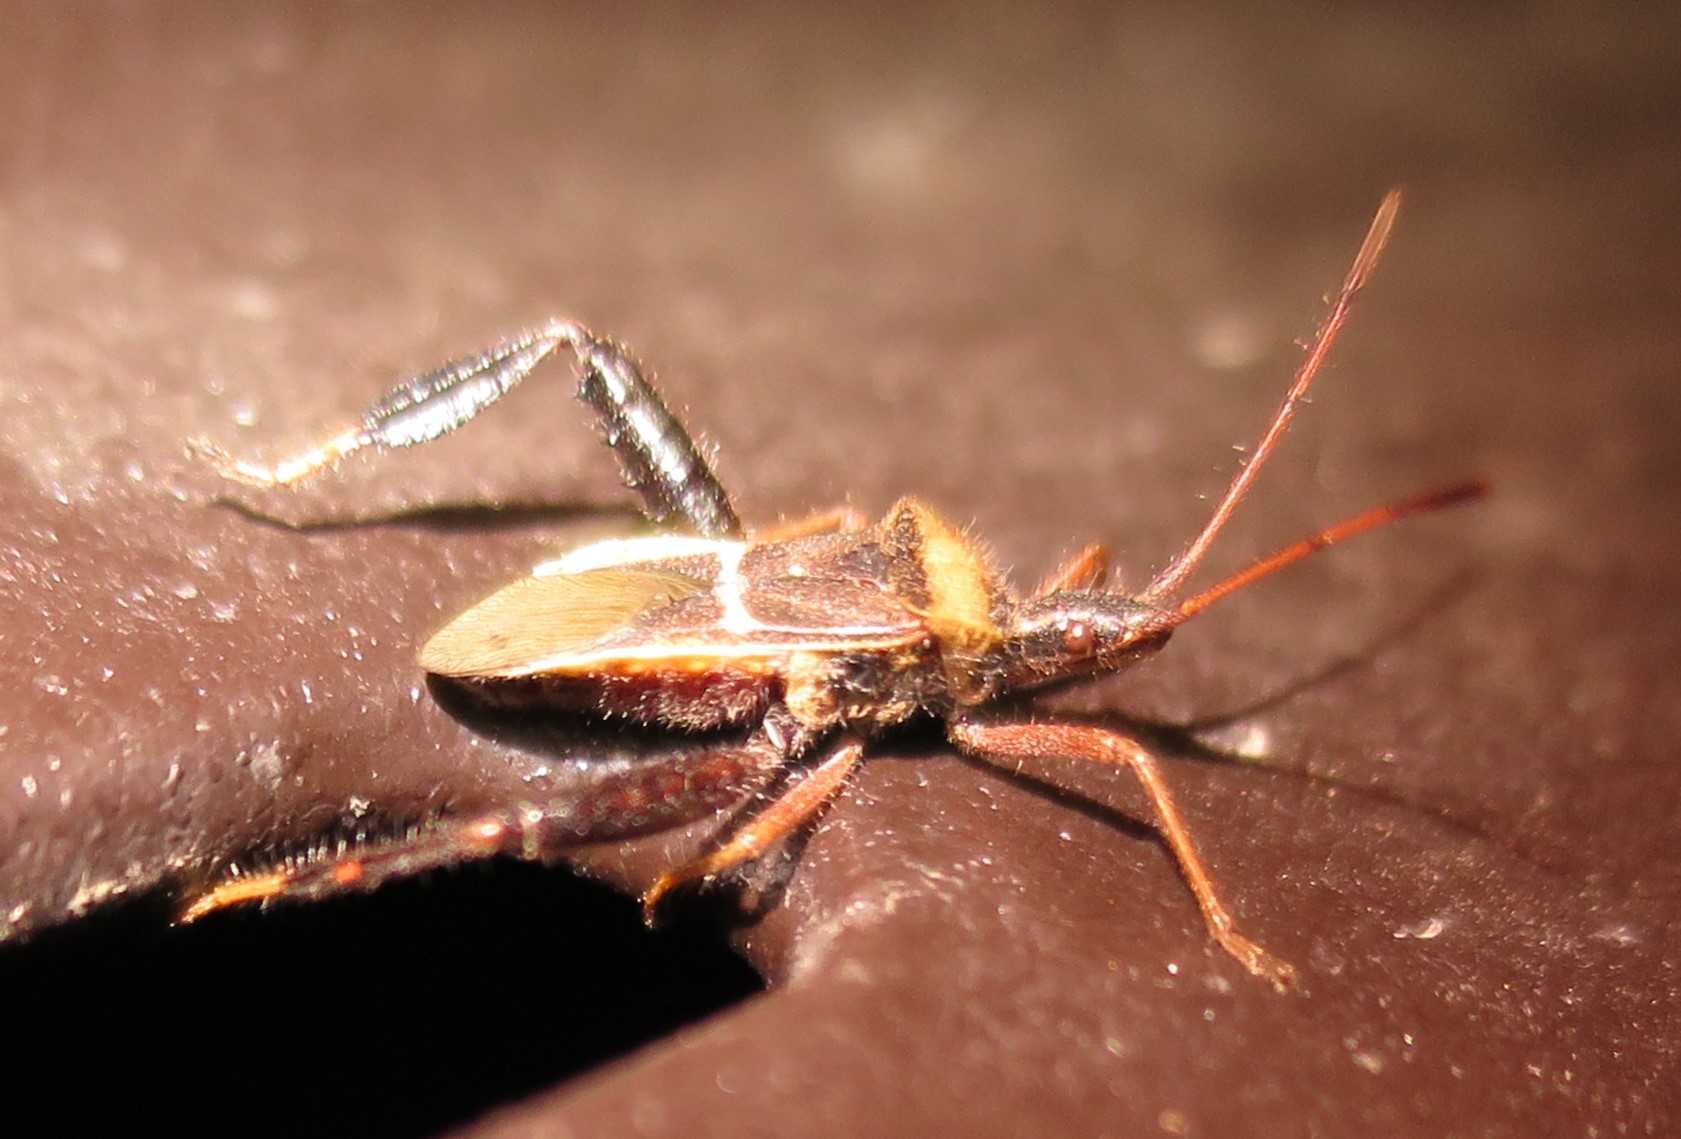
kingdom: Animalia
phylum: Arthropoda
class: Insecta
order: Hemiptera
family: Coreidae
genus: Narnia
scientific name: Narnia snowi
